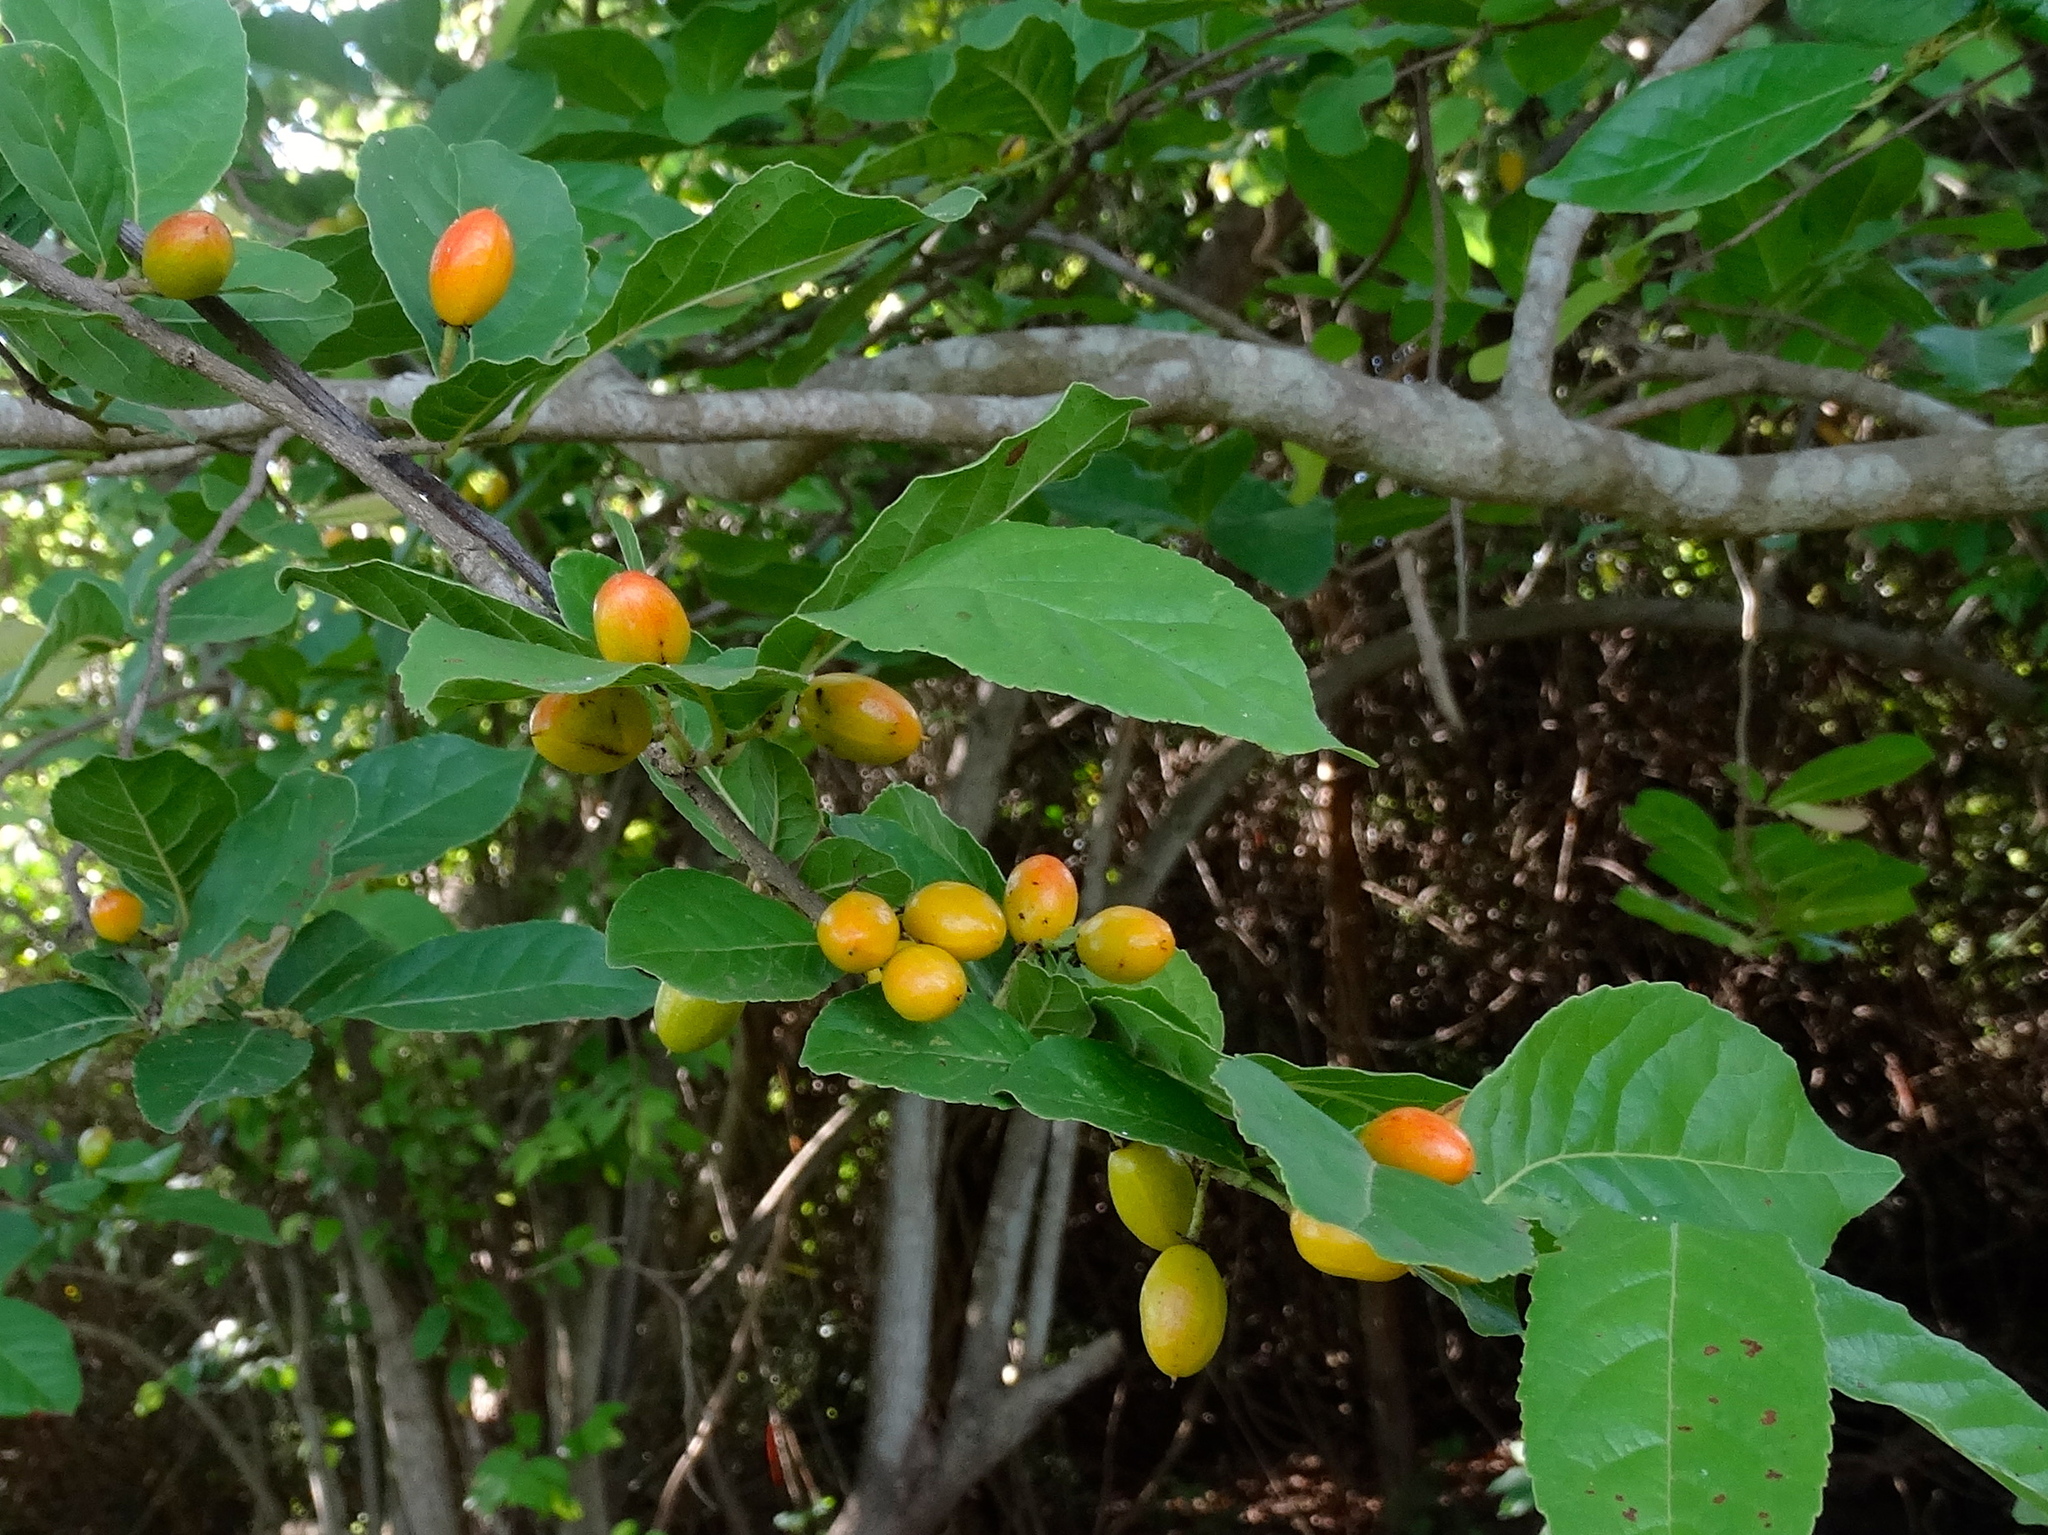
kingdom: Plantae
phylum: Tracheophyta
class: Magnoliopsida
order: Malpighiales
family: Salicaceae
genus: Casearia
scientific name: Casearia corymbosa
